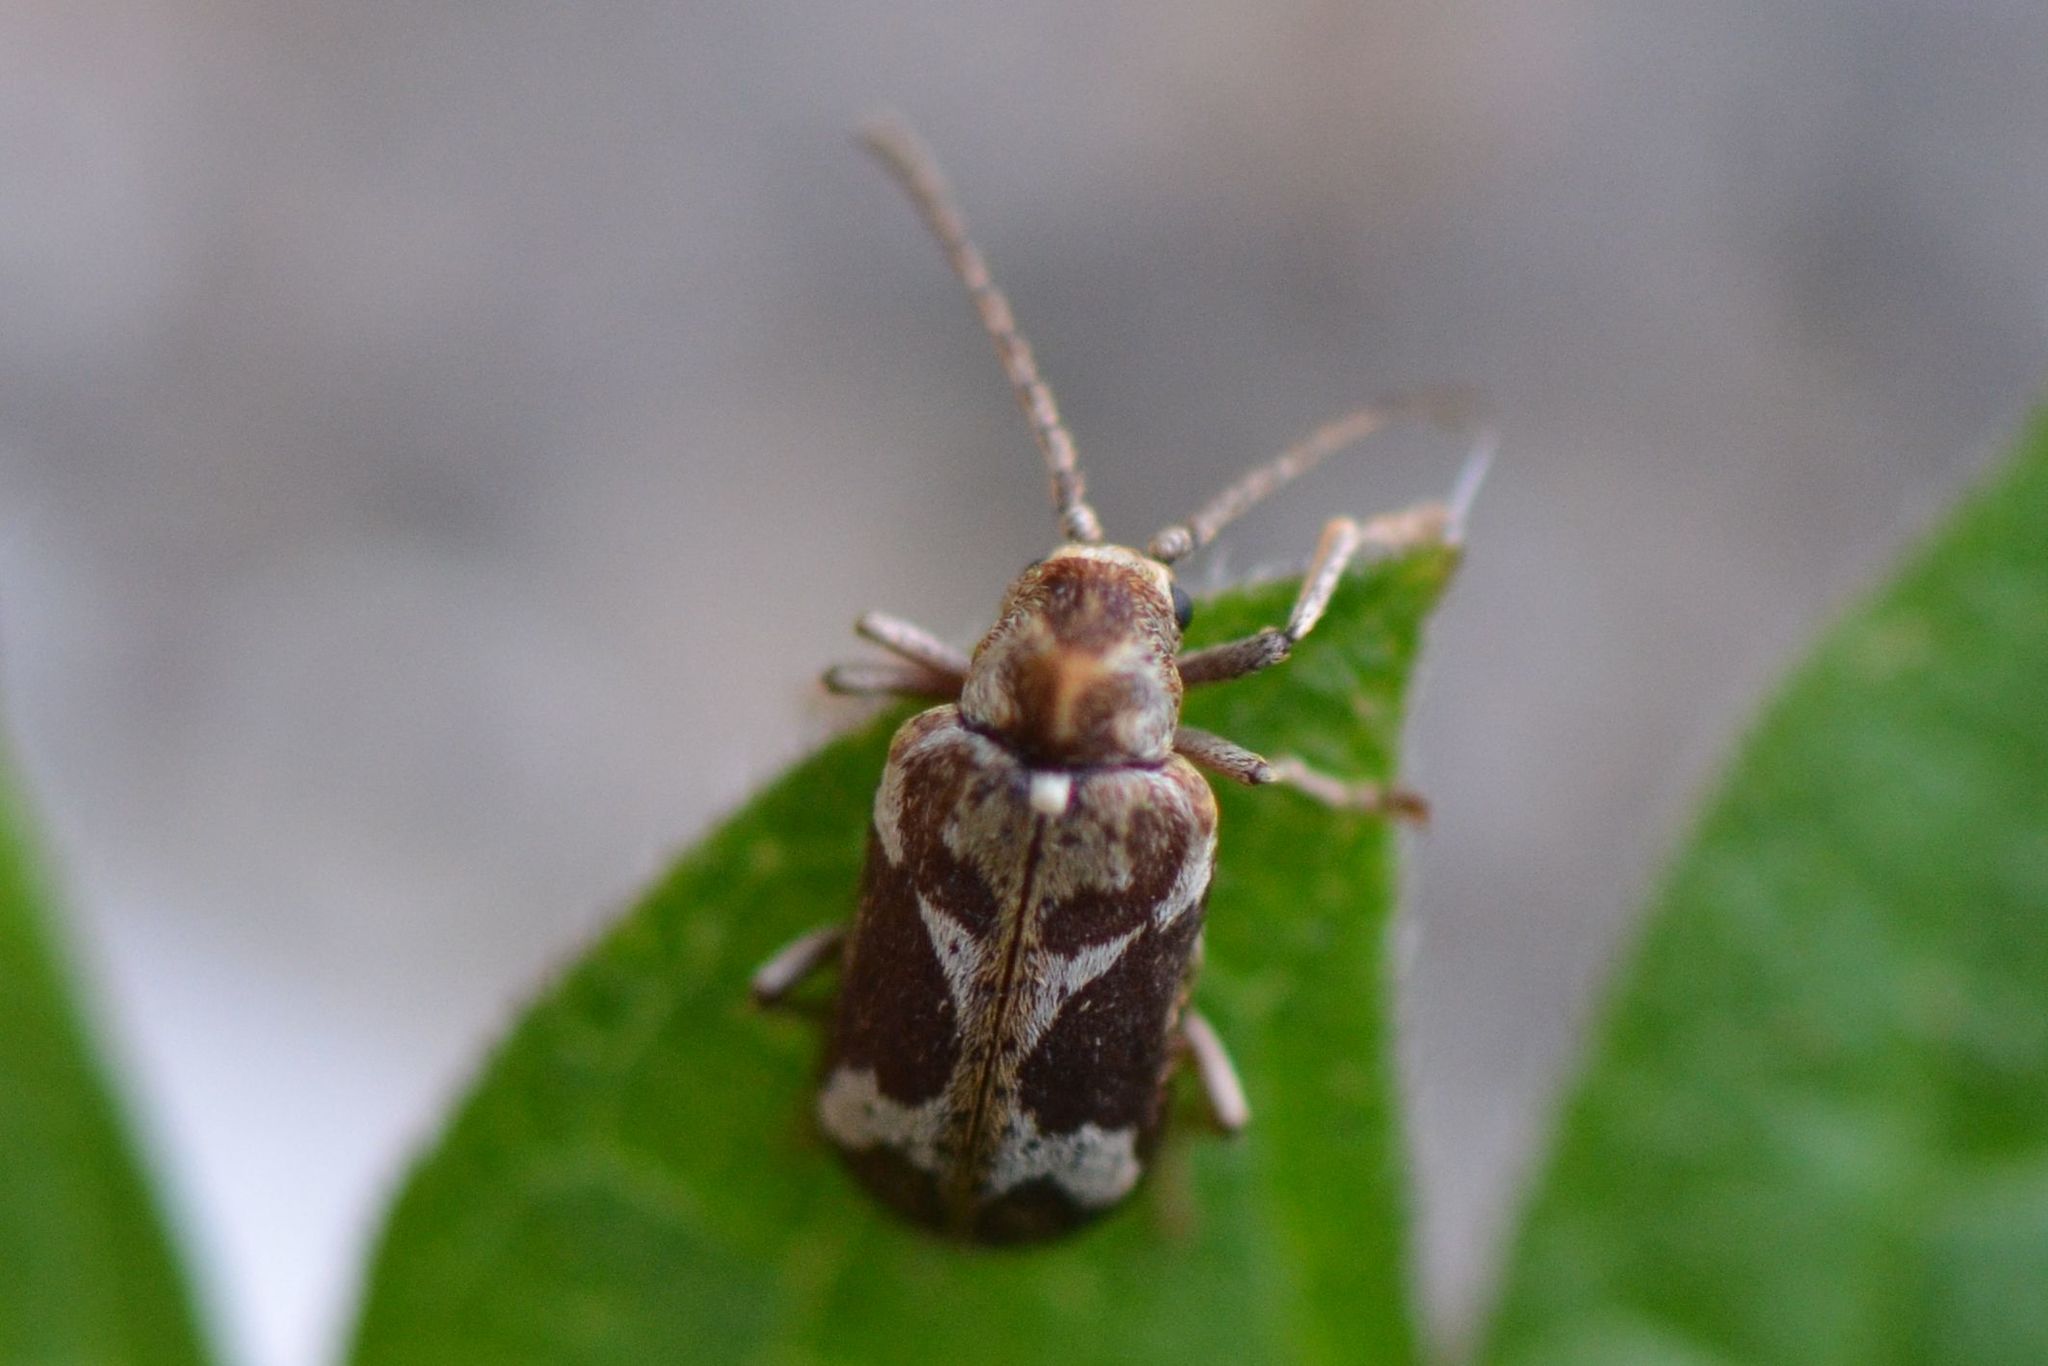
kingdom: Animalia
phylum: Arthropoda
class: Insecta
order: Coleoptera
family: Anobiidae
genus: Ptinomorphus
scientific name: Ptinomorphus imperialis
